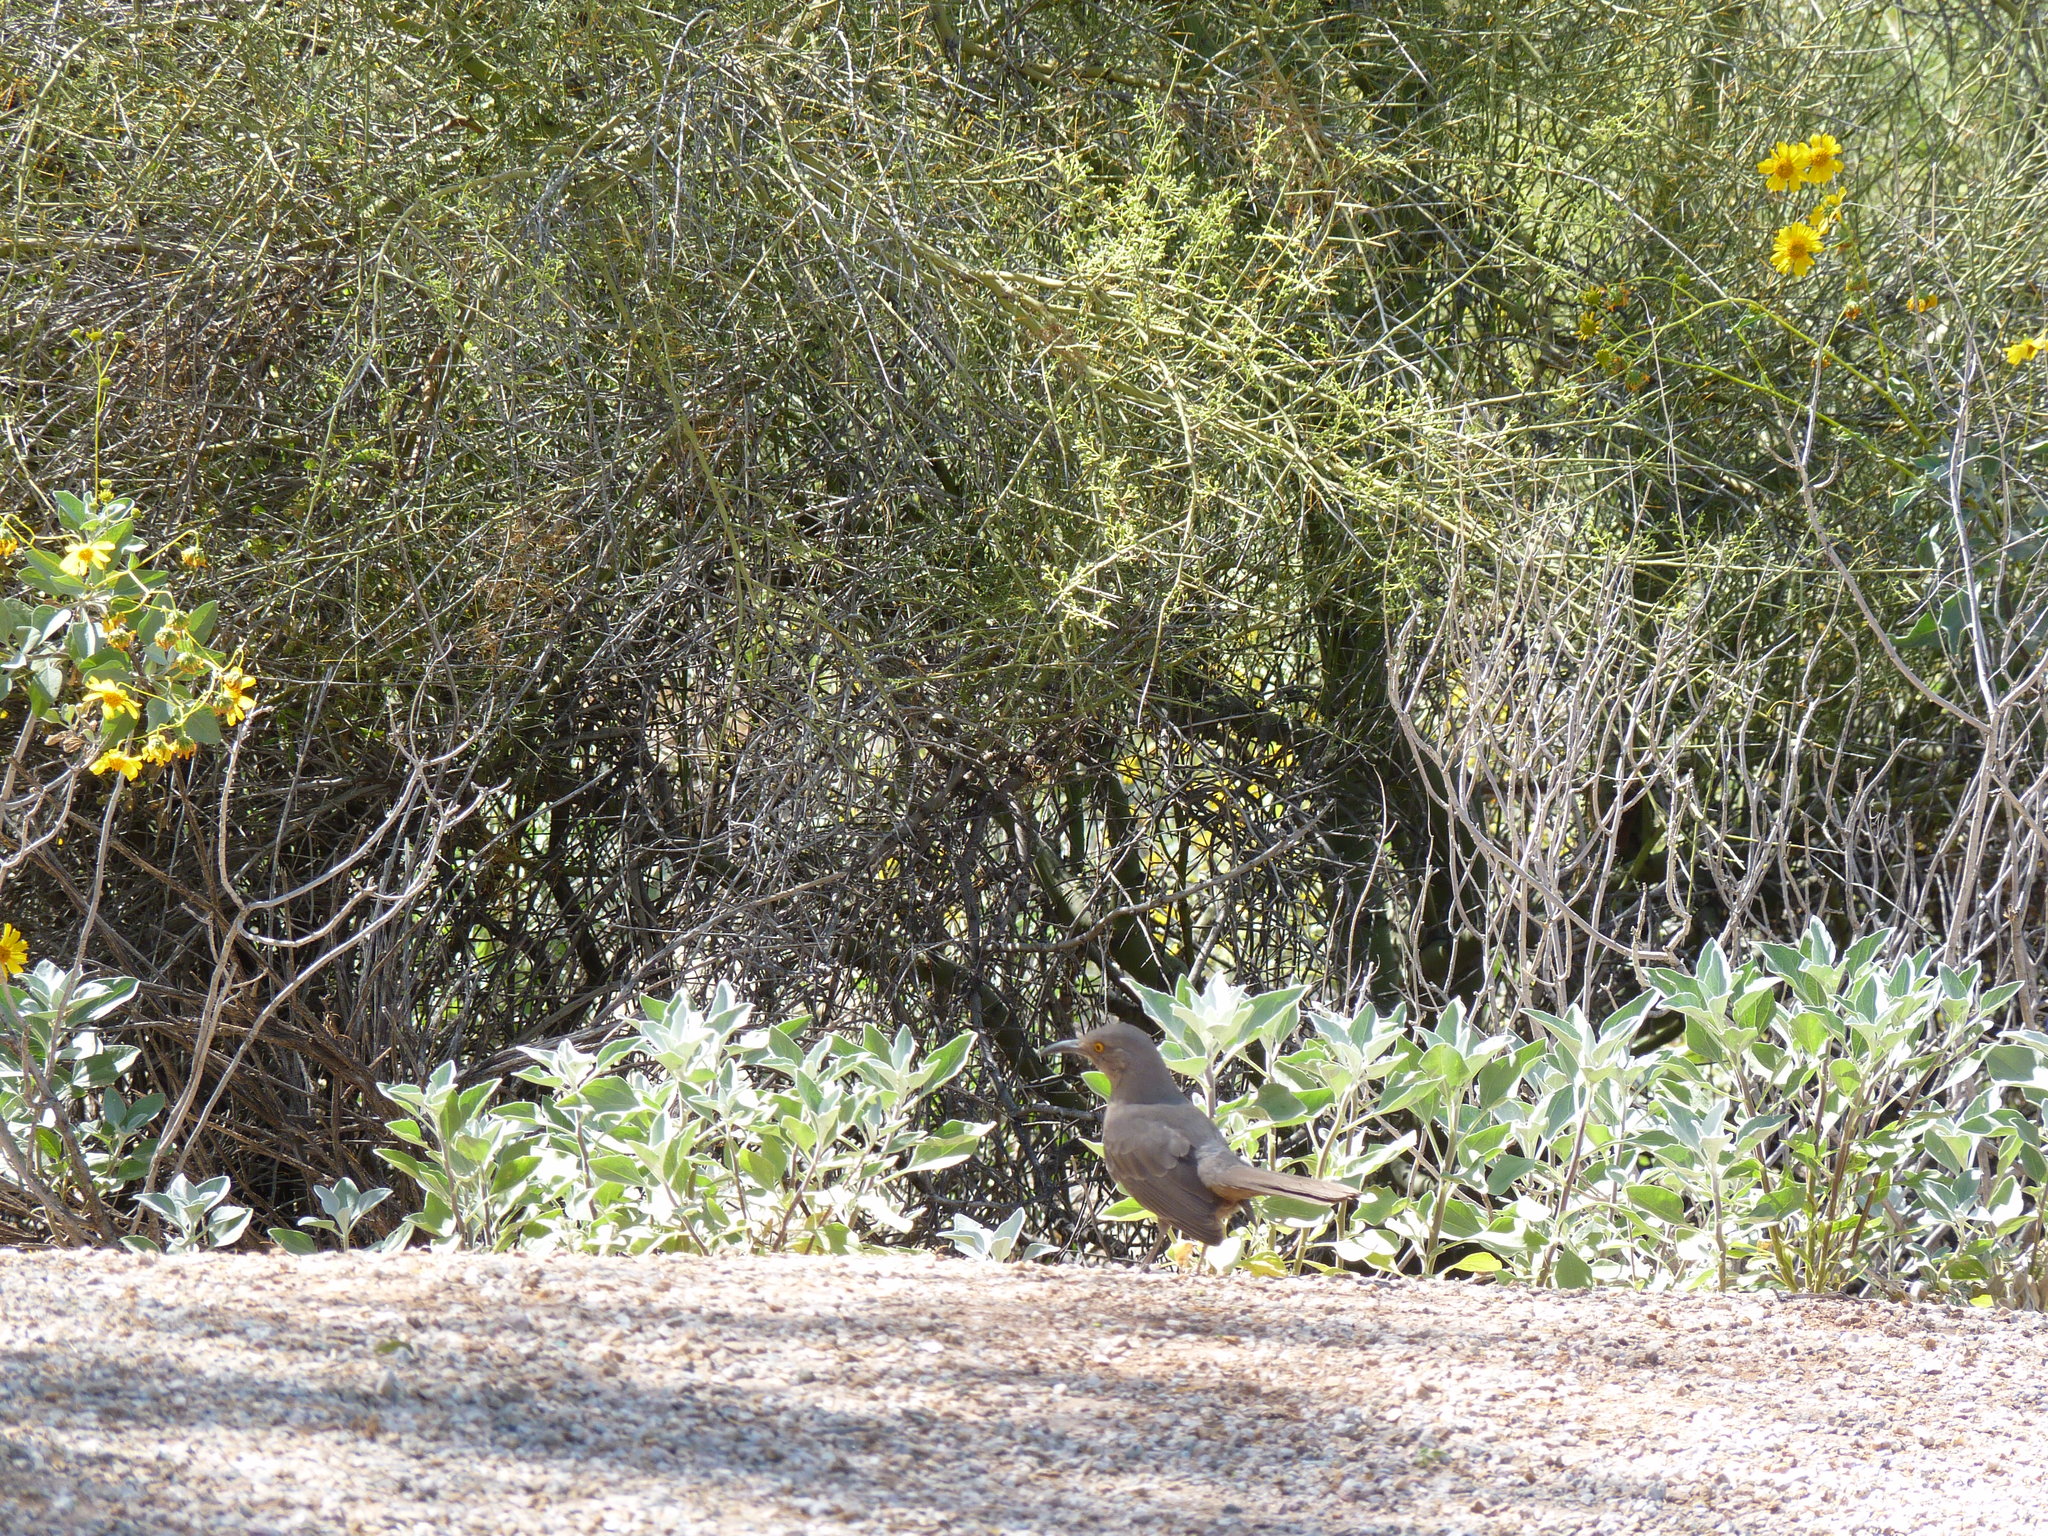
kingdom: Animalia
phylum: Chordata
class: Aves
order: Passeriformes
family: Mimidae
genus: Toxostoma
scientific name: Toxostoma curvirostre
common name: Curve-billed thrasher
